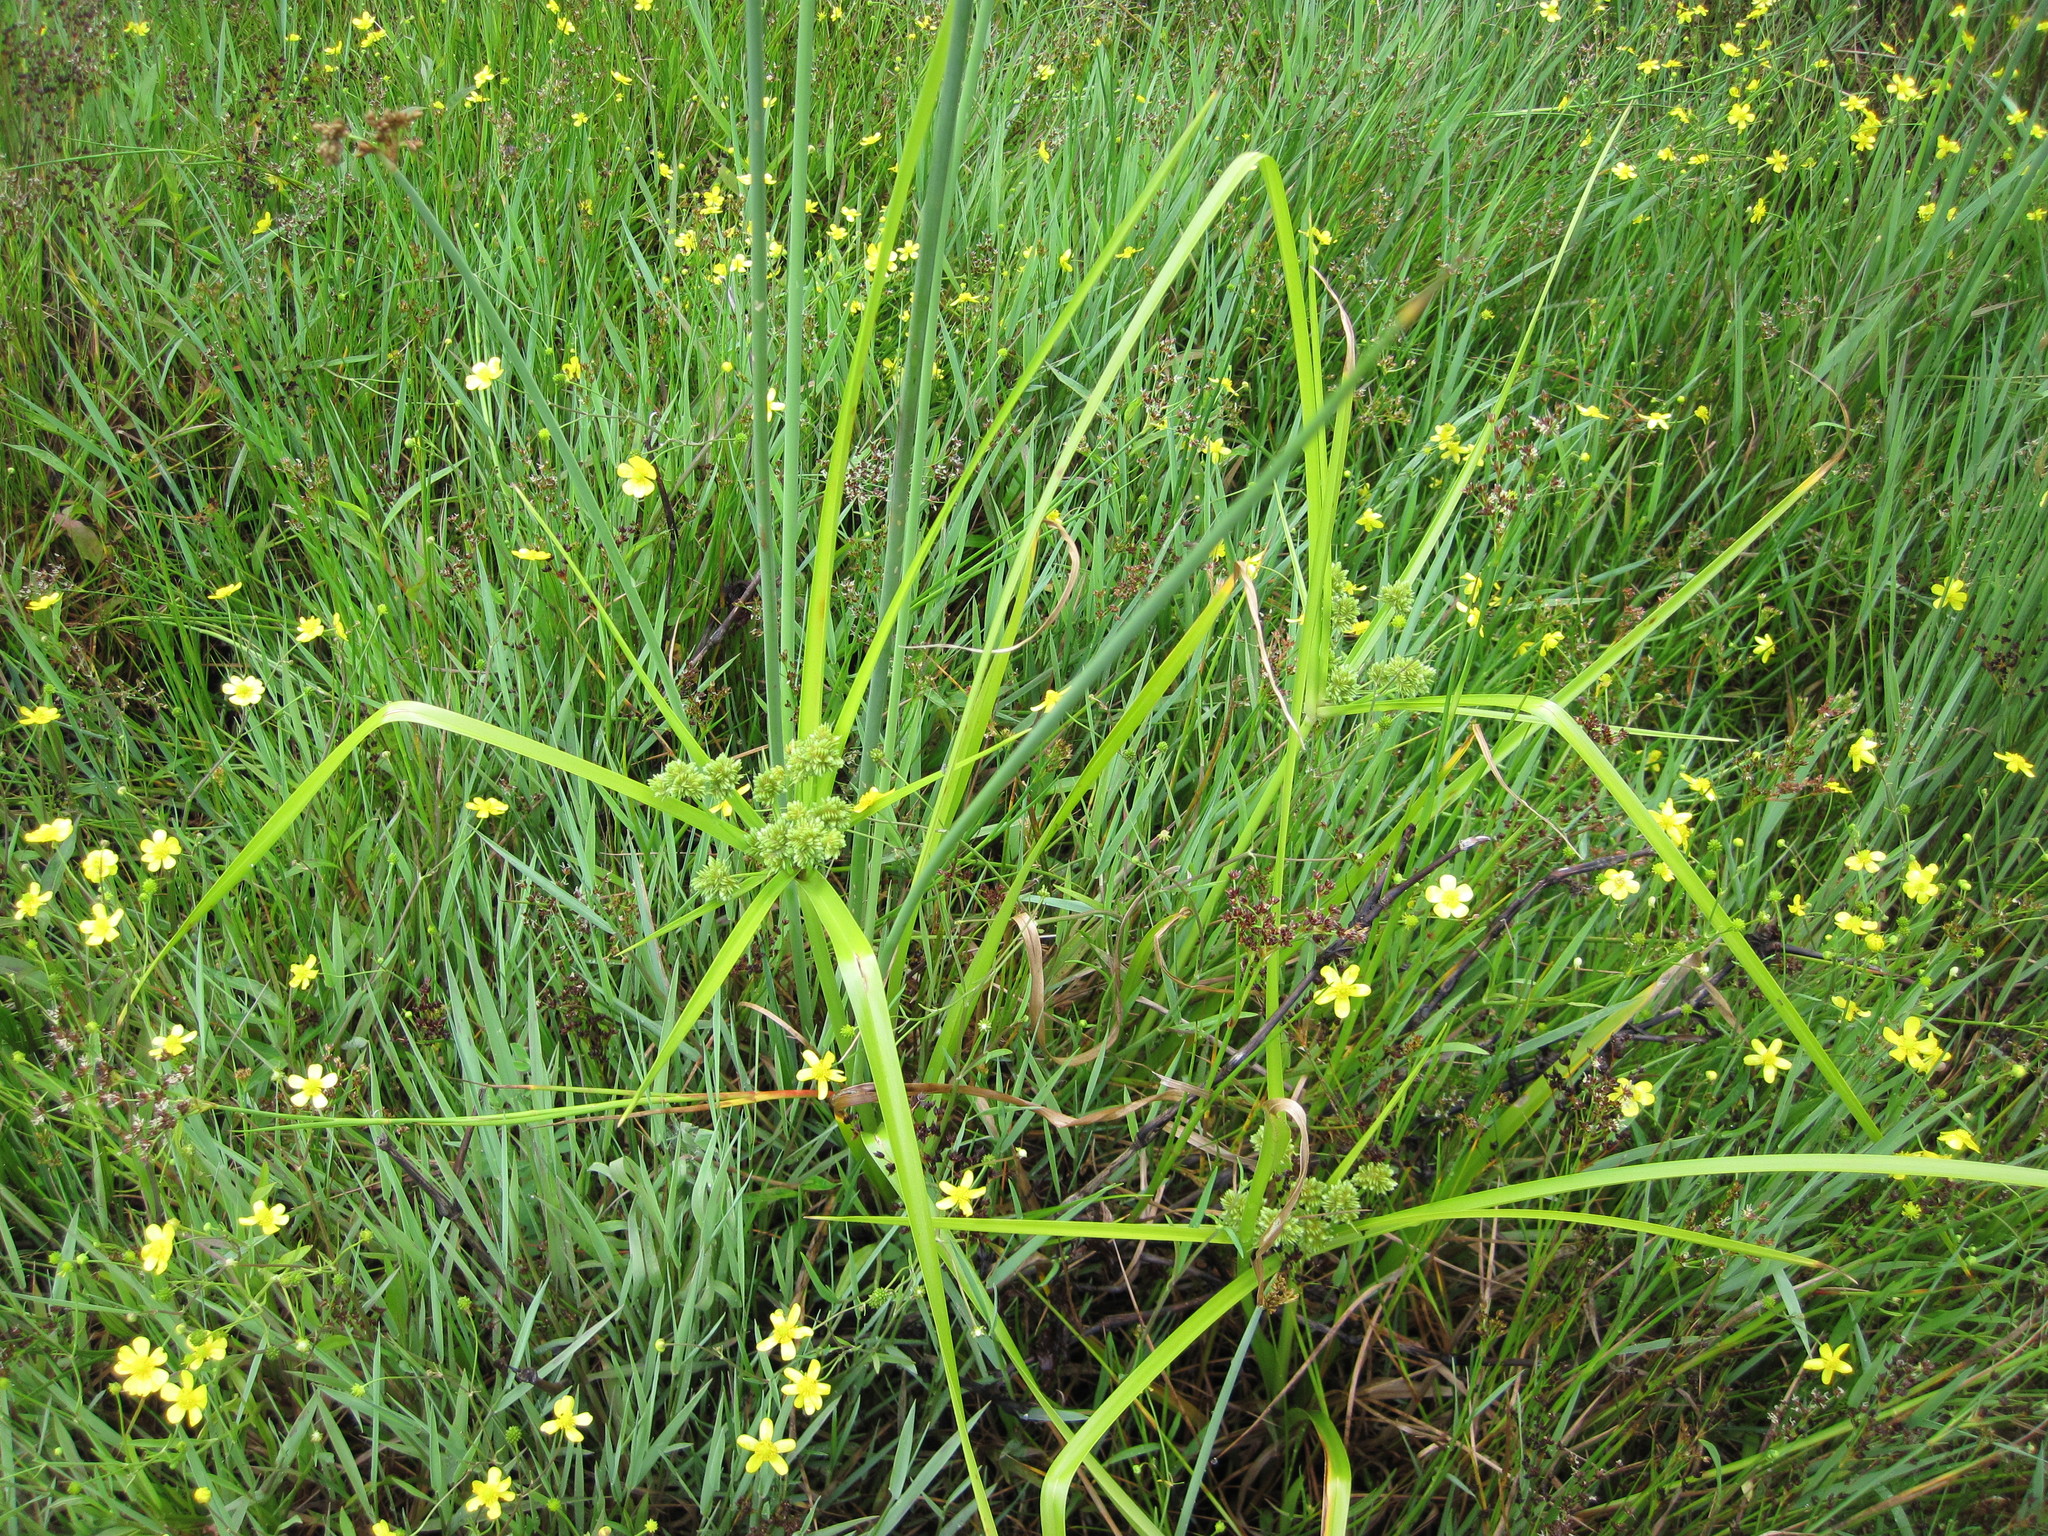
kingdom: Plantae
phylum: Tracheophyta
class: Liliopsida
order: Poales
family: Cyperaceae
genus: Cyperus
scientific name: Cyperus eragrostis
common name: Tall flatsedge
